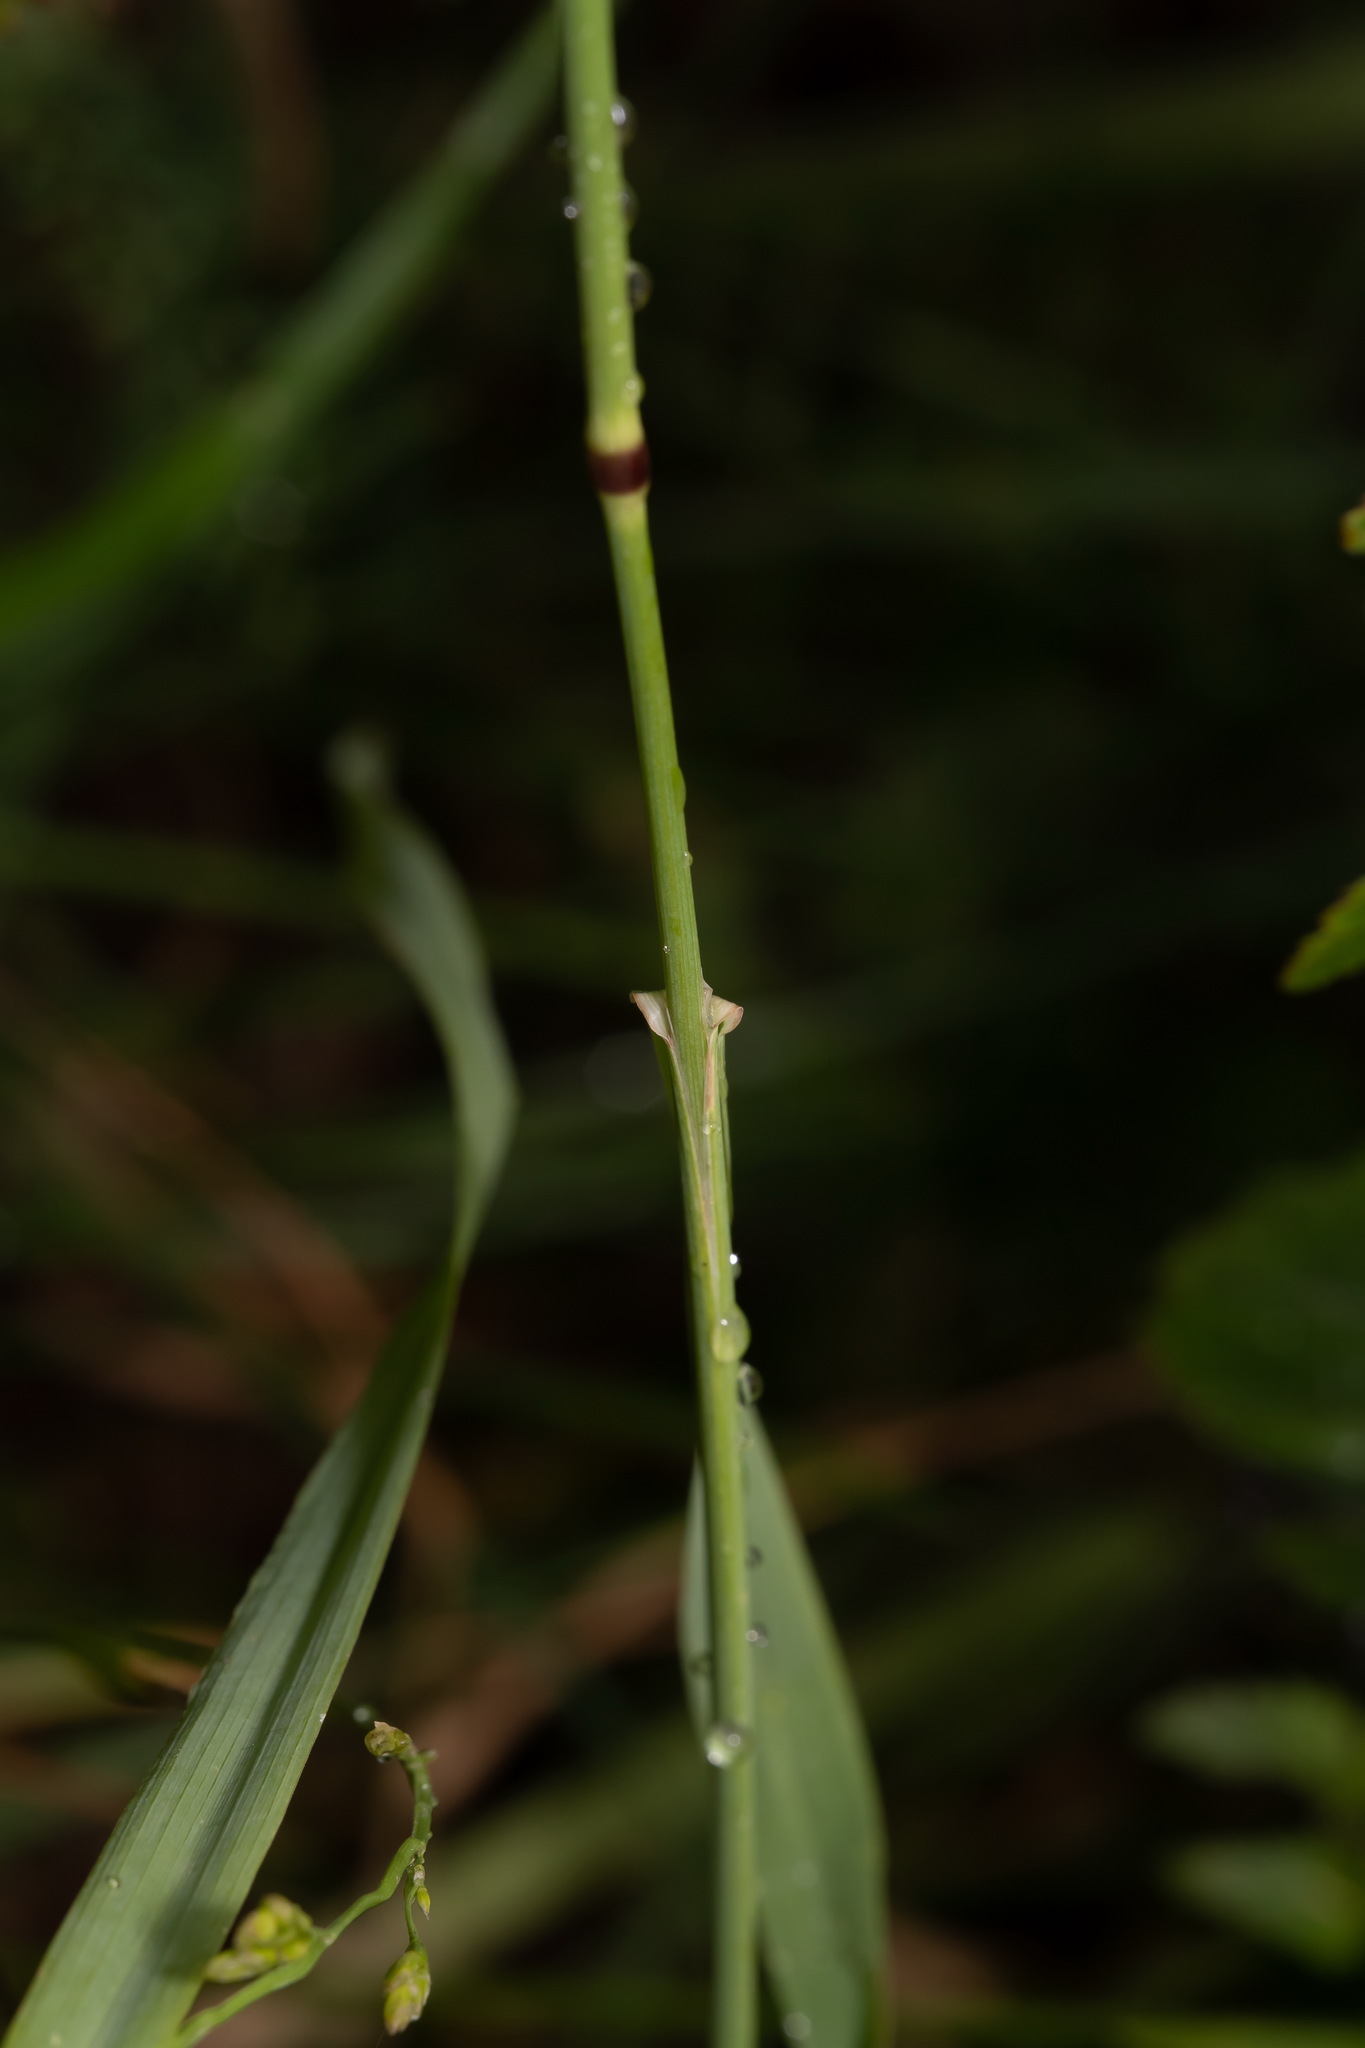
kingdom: Plantae
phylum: Tracheophyta
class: Liliopsida
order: Poales
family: Poaceae
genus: Phleum
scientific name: Phleum pratense
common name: Timothy grass
